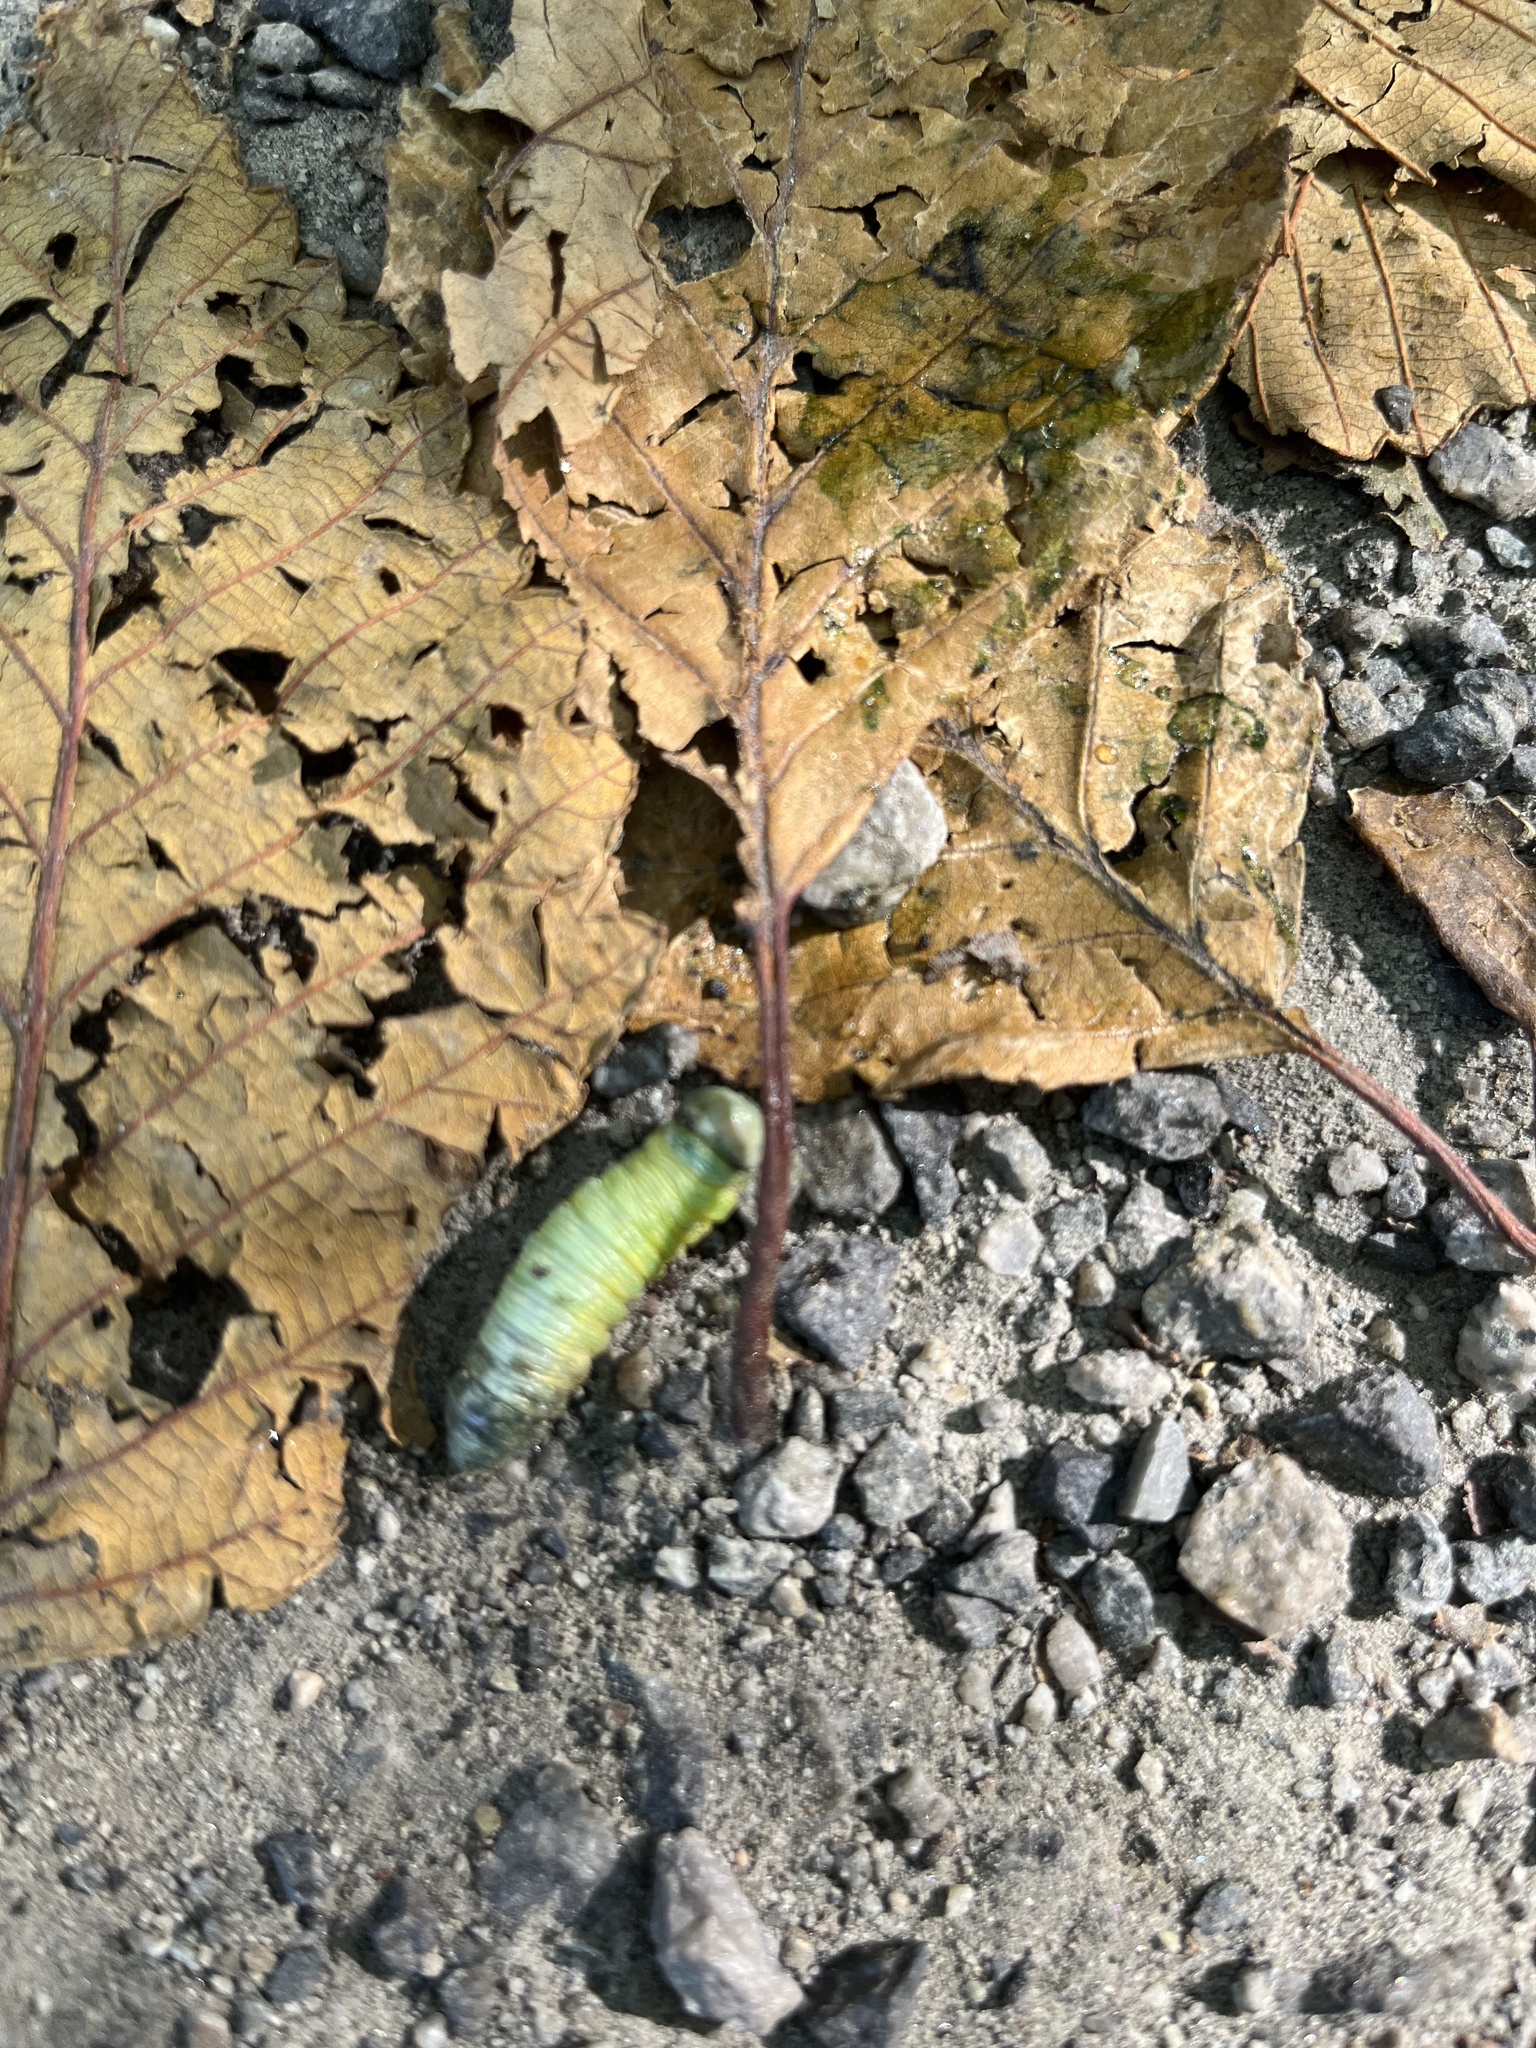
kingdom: Animalia
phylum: Arthropoda
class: Insecta
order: Lepidoptera
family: Notodontidae
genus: Nadata
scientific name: Nadata gibbosa
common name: White-dotted prominent
